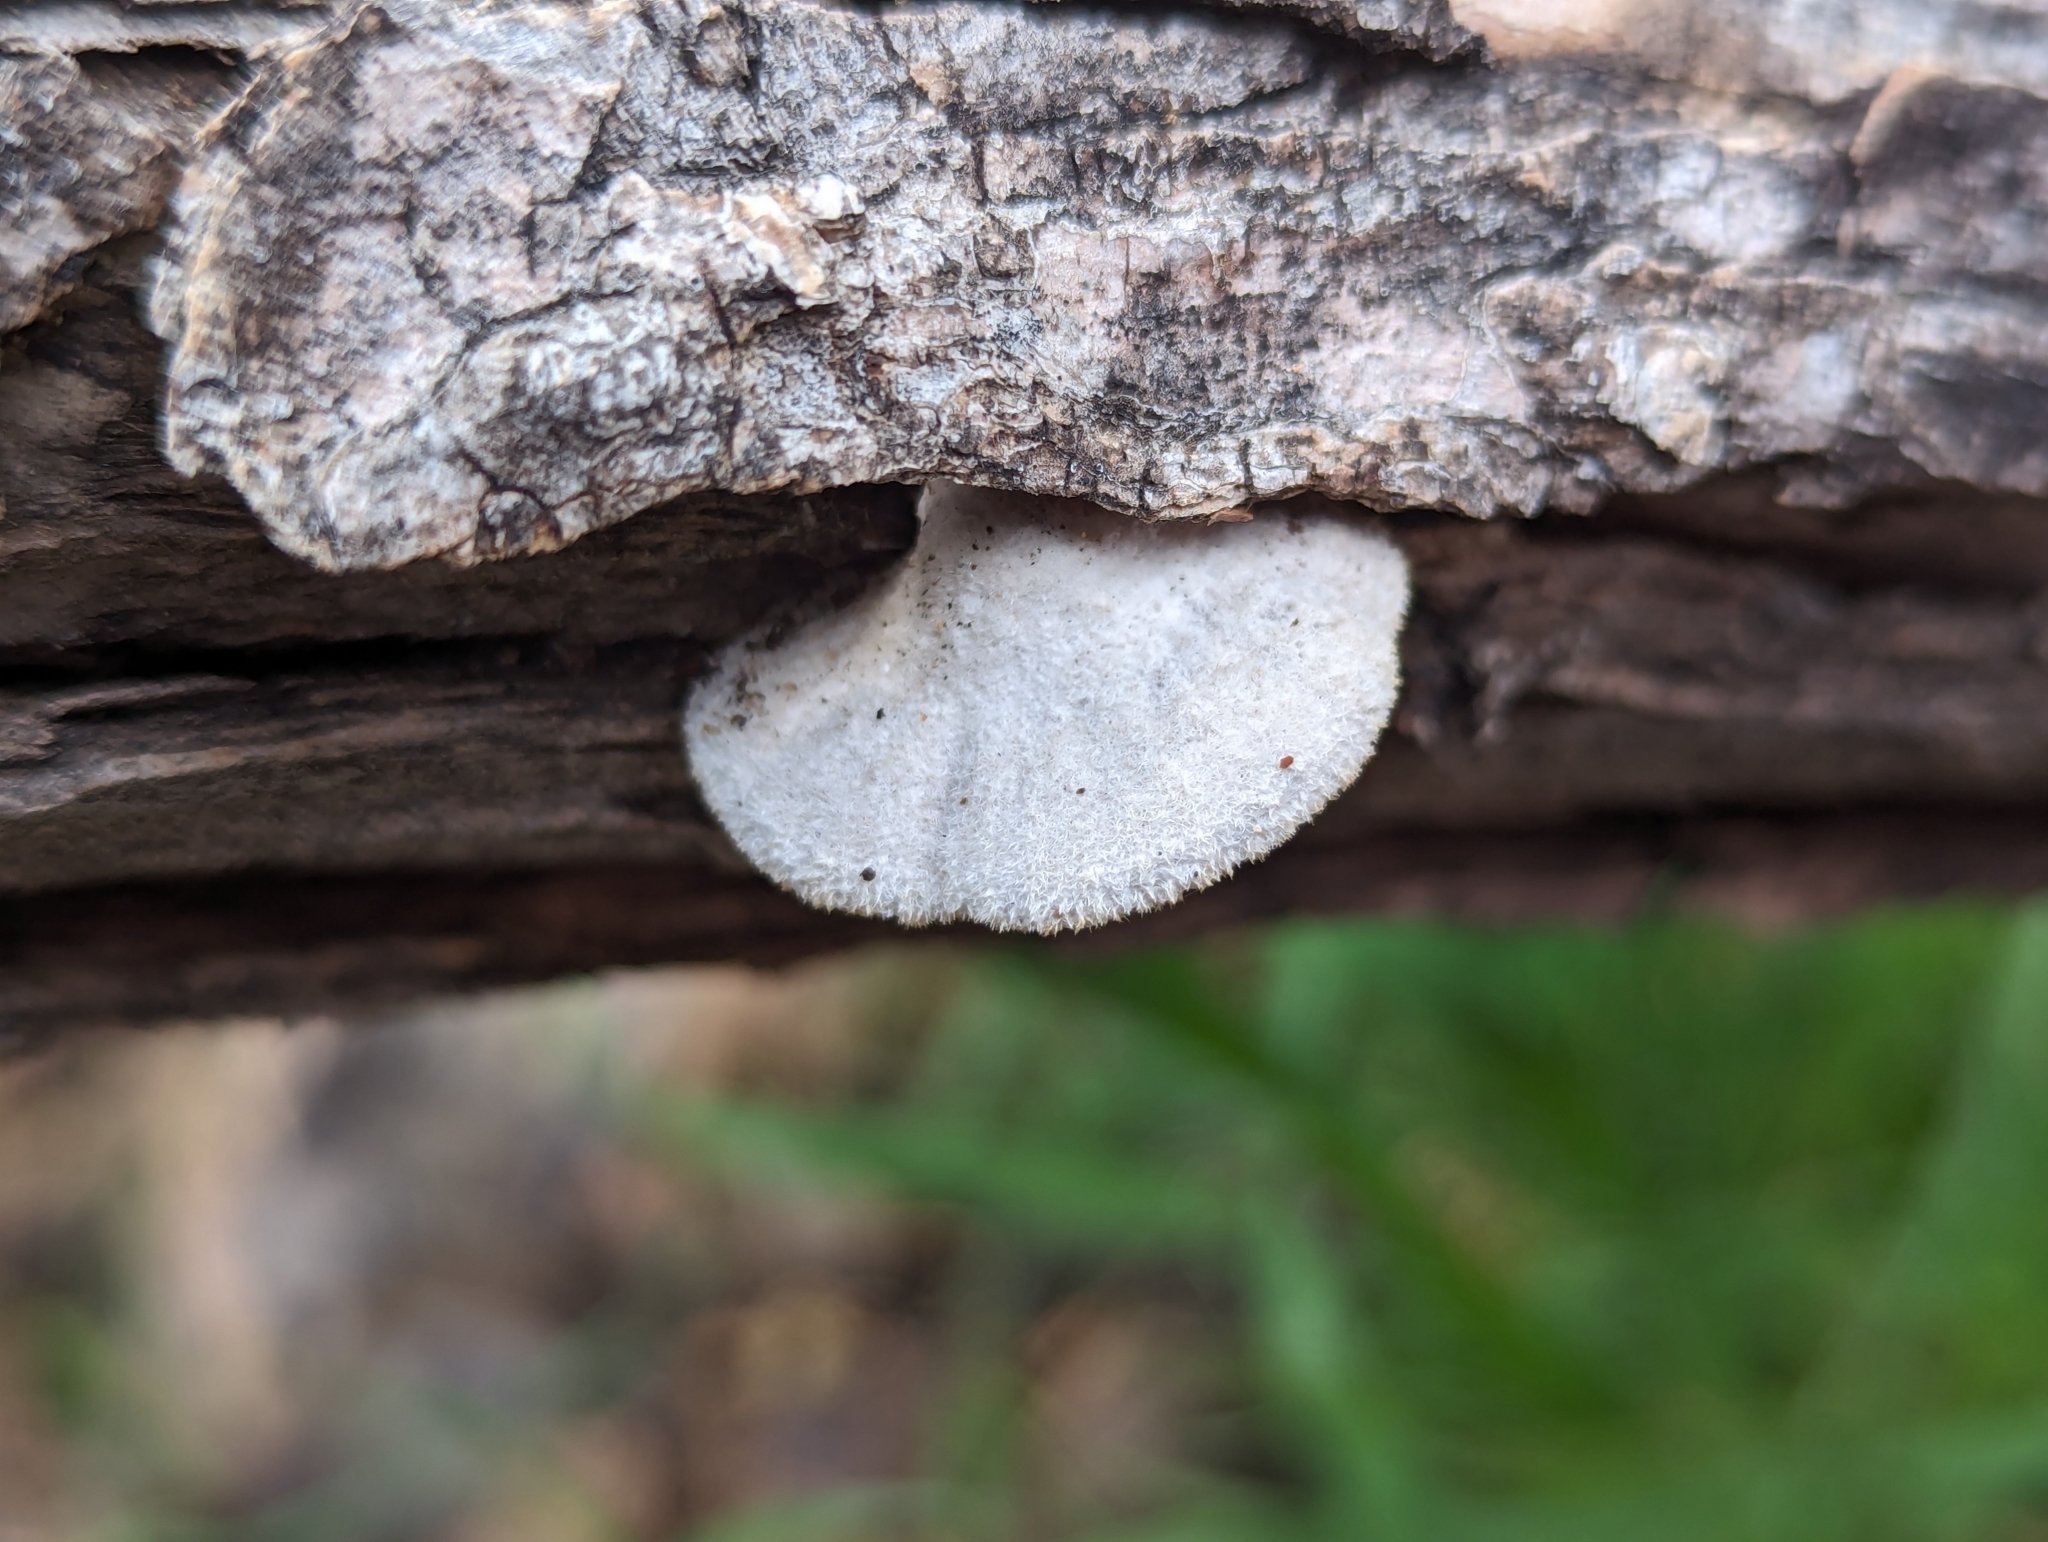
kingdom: Fungi
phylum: Basidiomycota
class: Agaricomycetes
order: Agaricales
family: Schizophyllaceae
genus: Schizophyllum
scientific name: Schizophyllum commune
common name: Common porecrust
